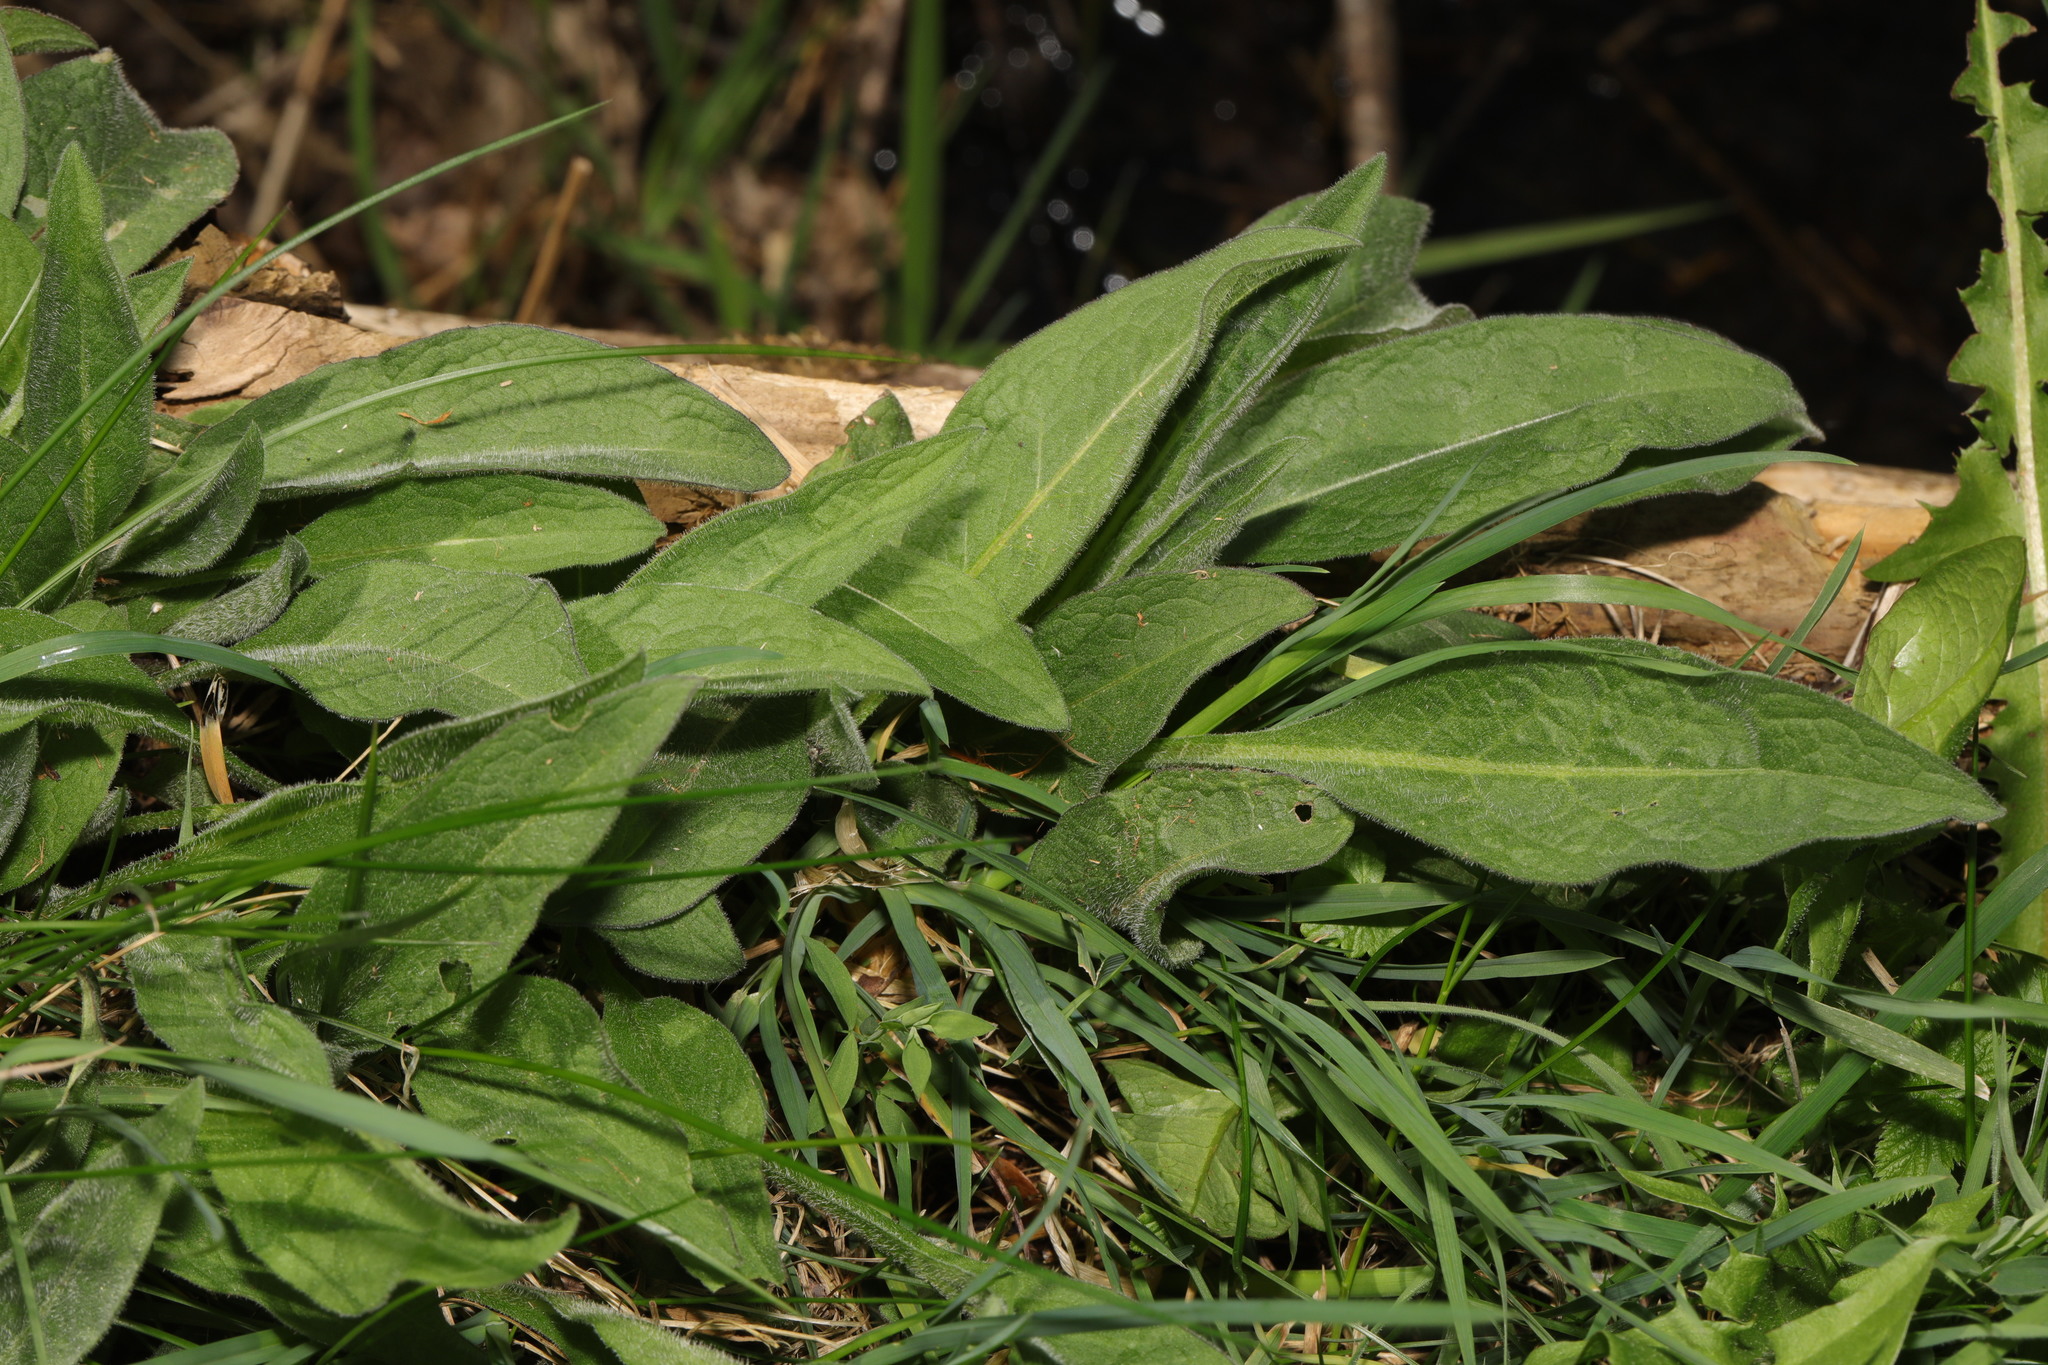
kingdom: Plantae
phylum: Tracheophyta
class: Magnoliopsida
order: Asterales
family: Asteraceae
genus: Centaurea
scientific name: Centaurea nigra
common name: Lesser knapweed
